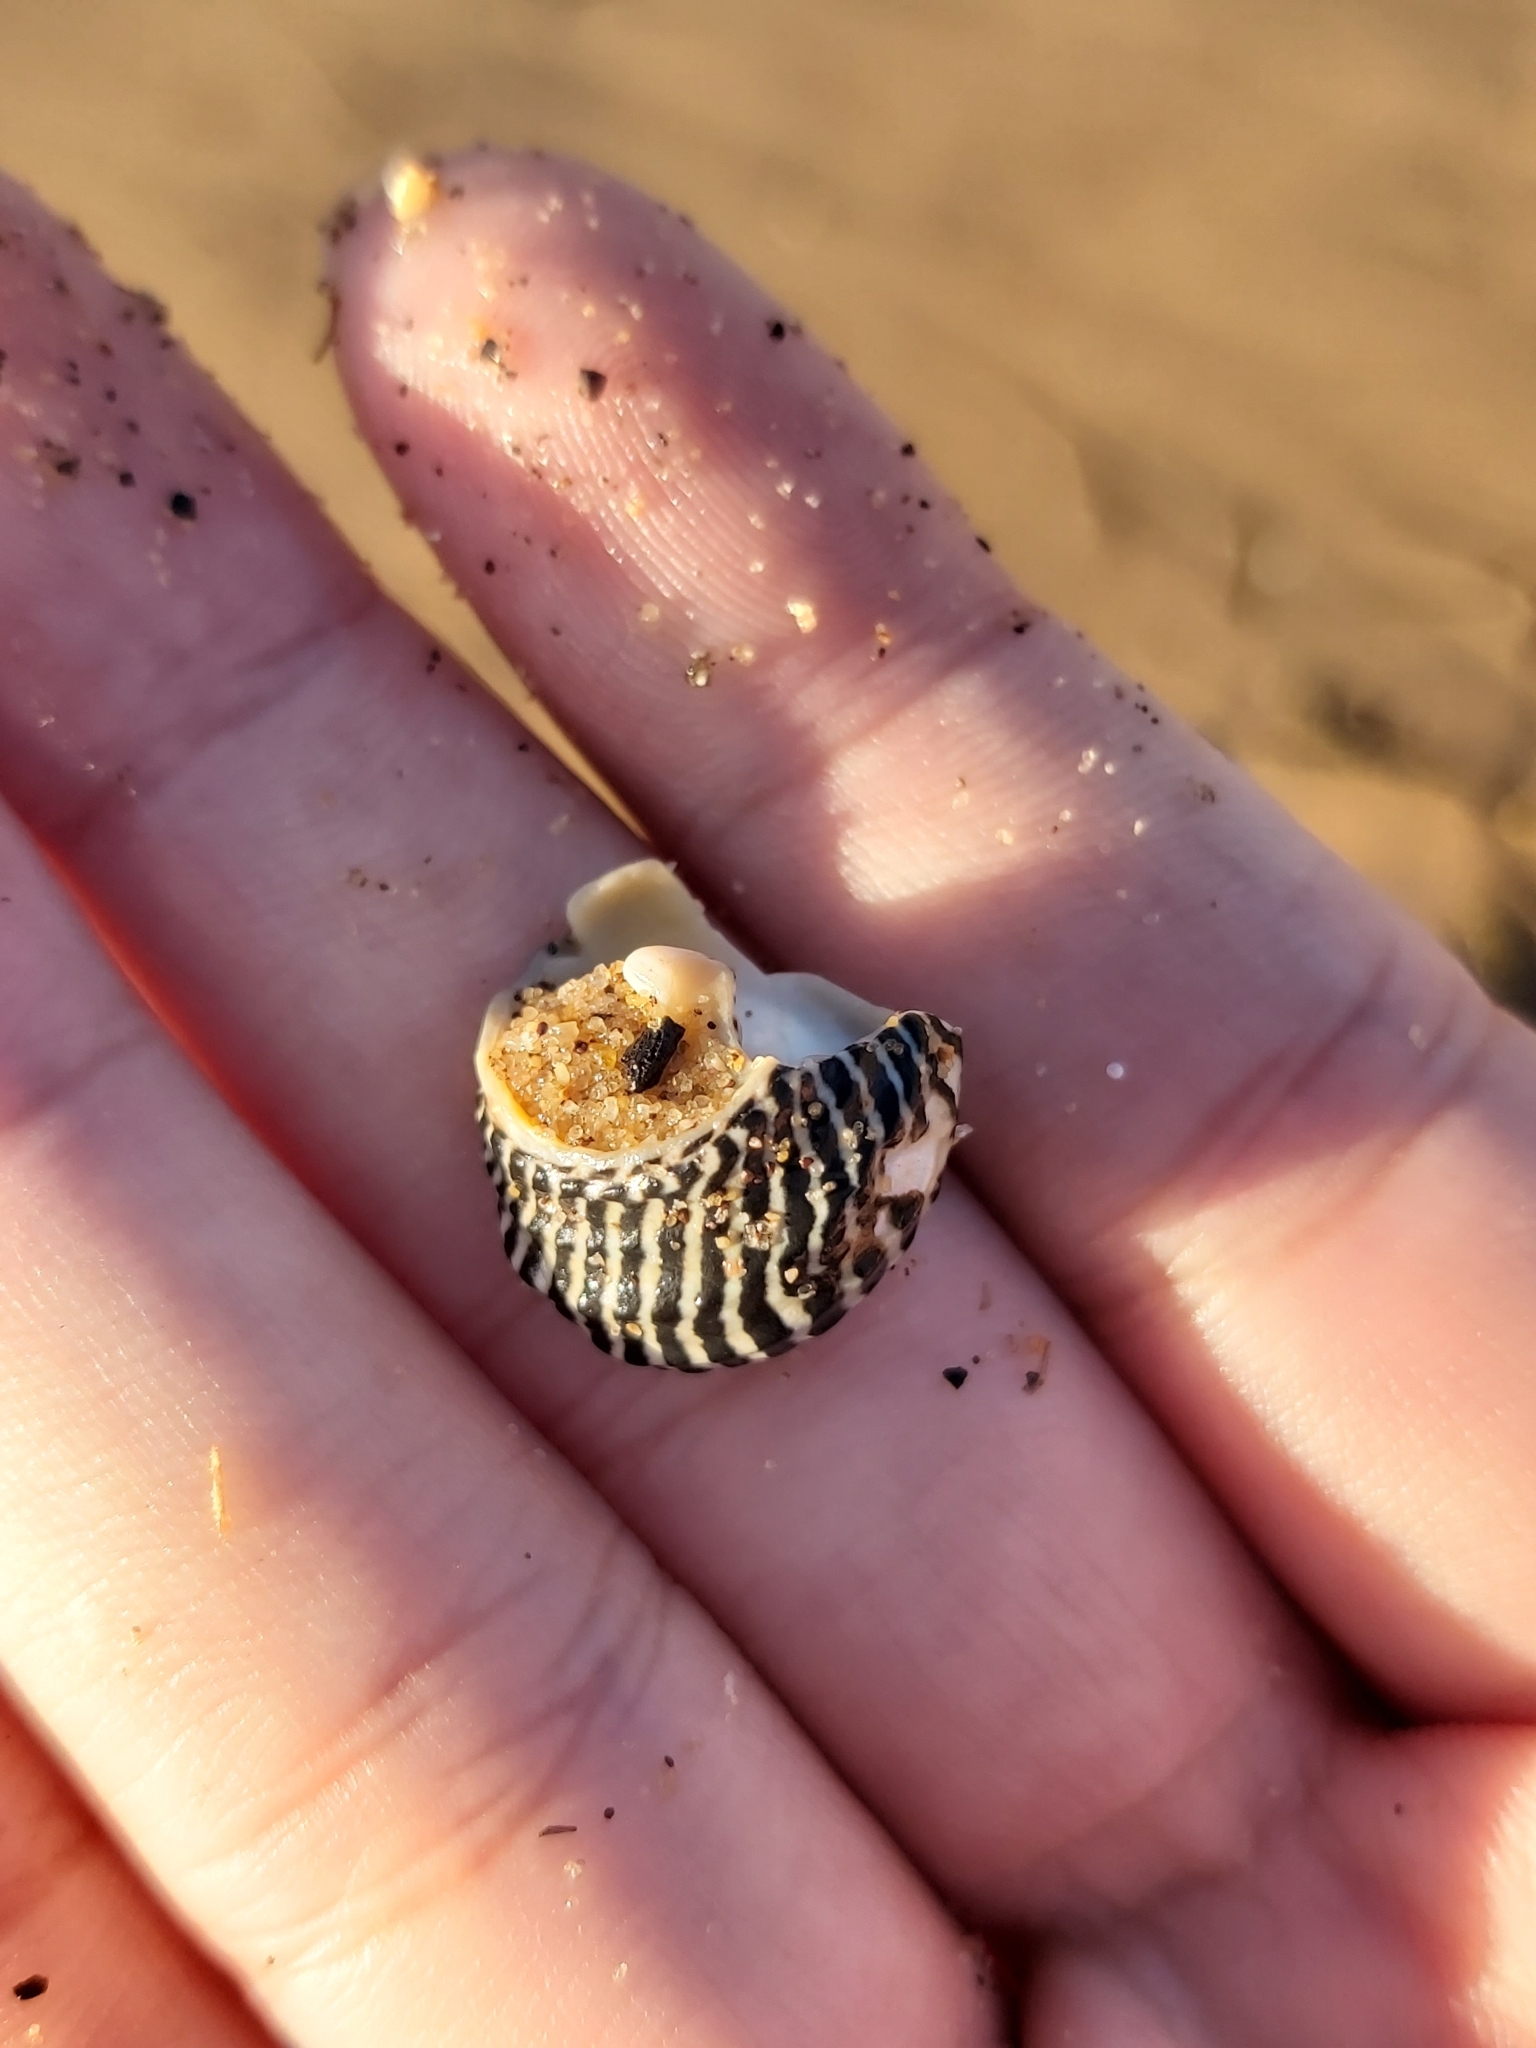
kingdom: Animalia
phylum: Mollusca
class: Gastropoda
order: Trochida
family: Trochidae
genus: Austrocochlea
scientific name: Austrocochlea porcata
